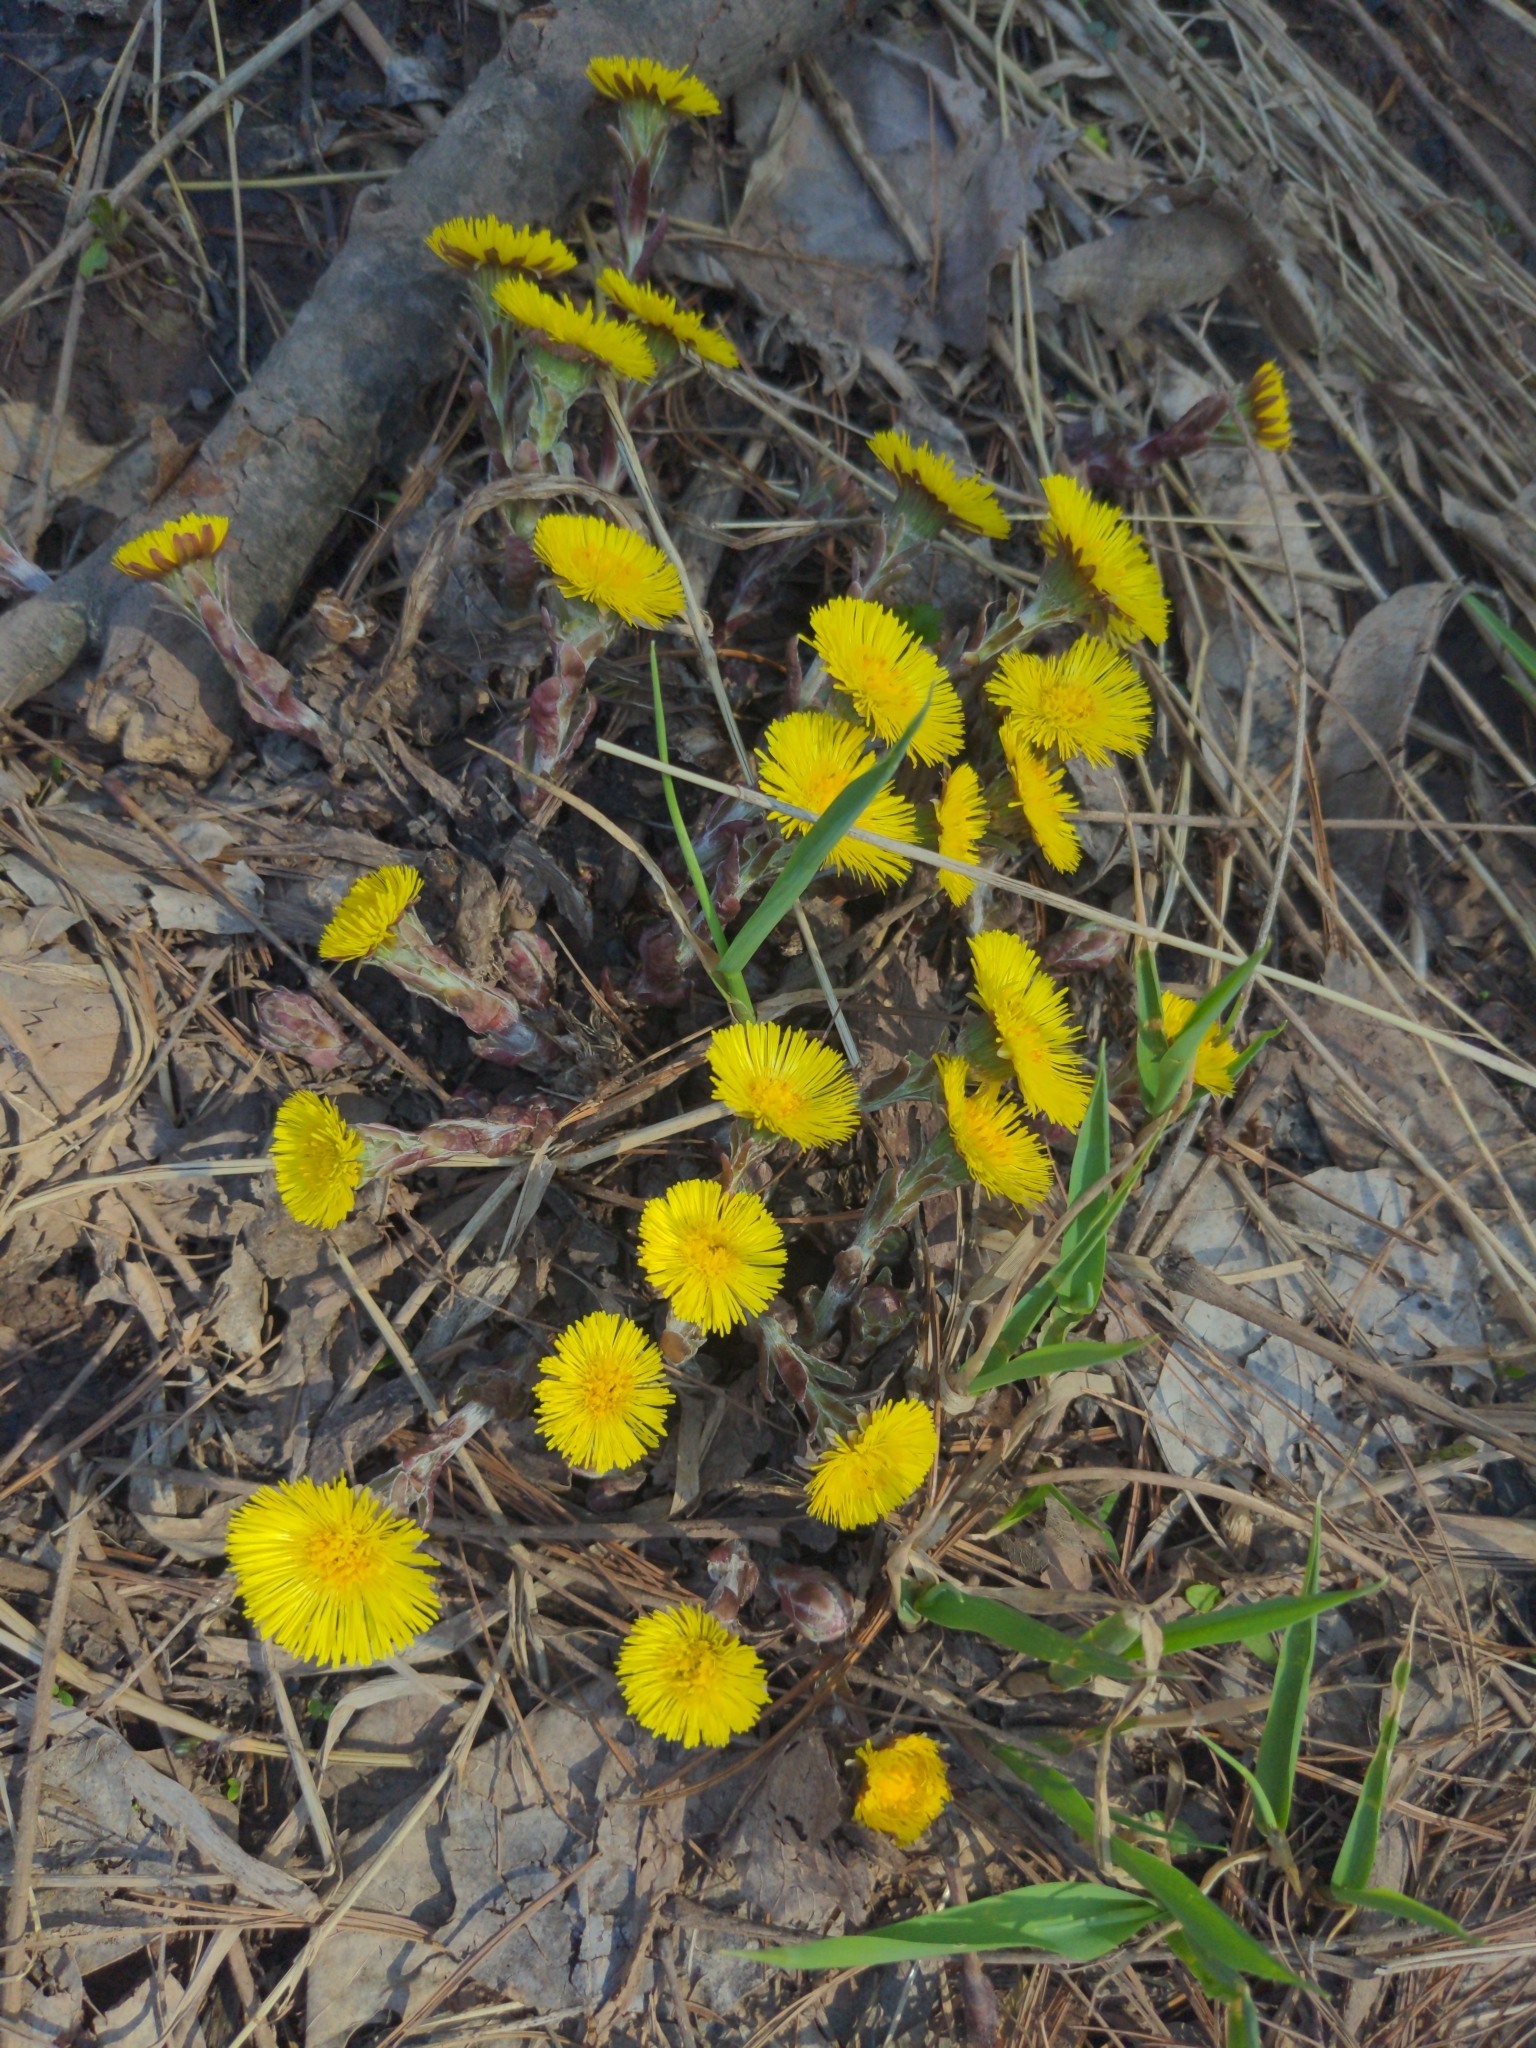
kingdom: Plantae
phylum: Tracheophyta
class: Magnoliopsida
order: Asterales
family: Asteraceae
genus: Tussilago
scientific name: Tussilago farfara
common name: Coltsfoot
